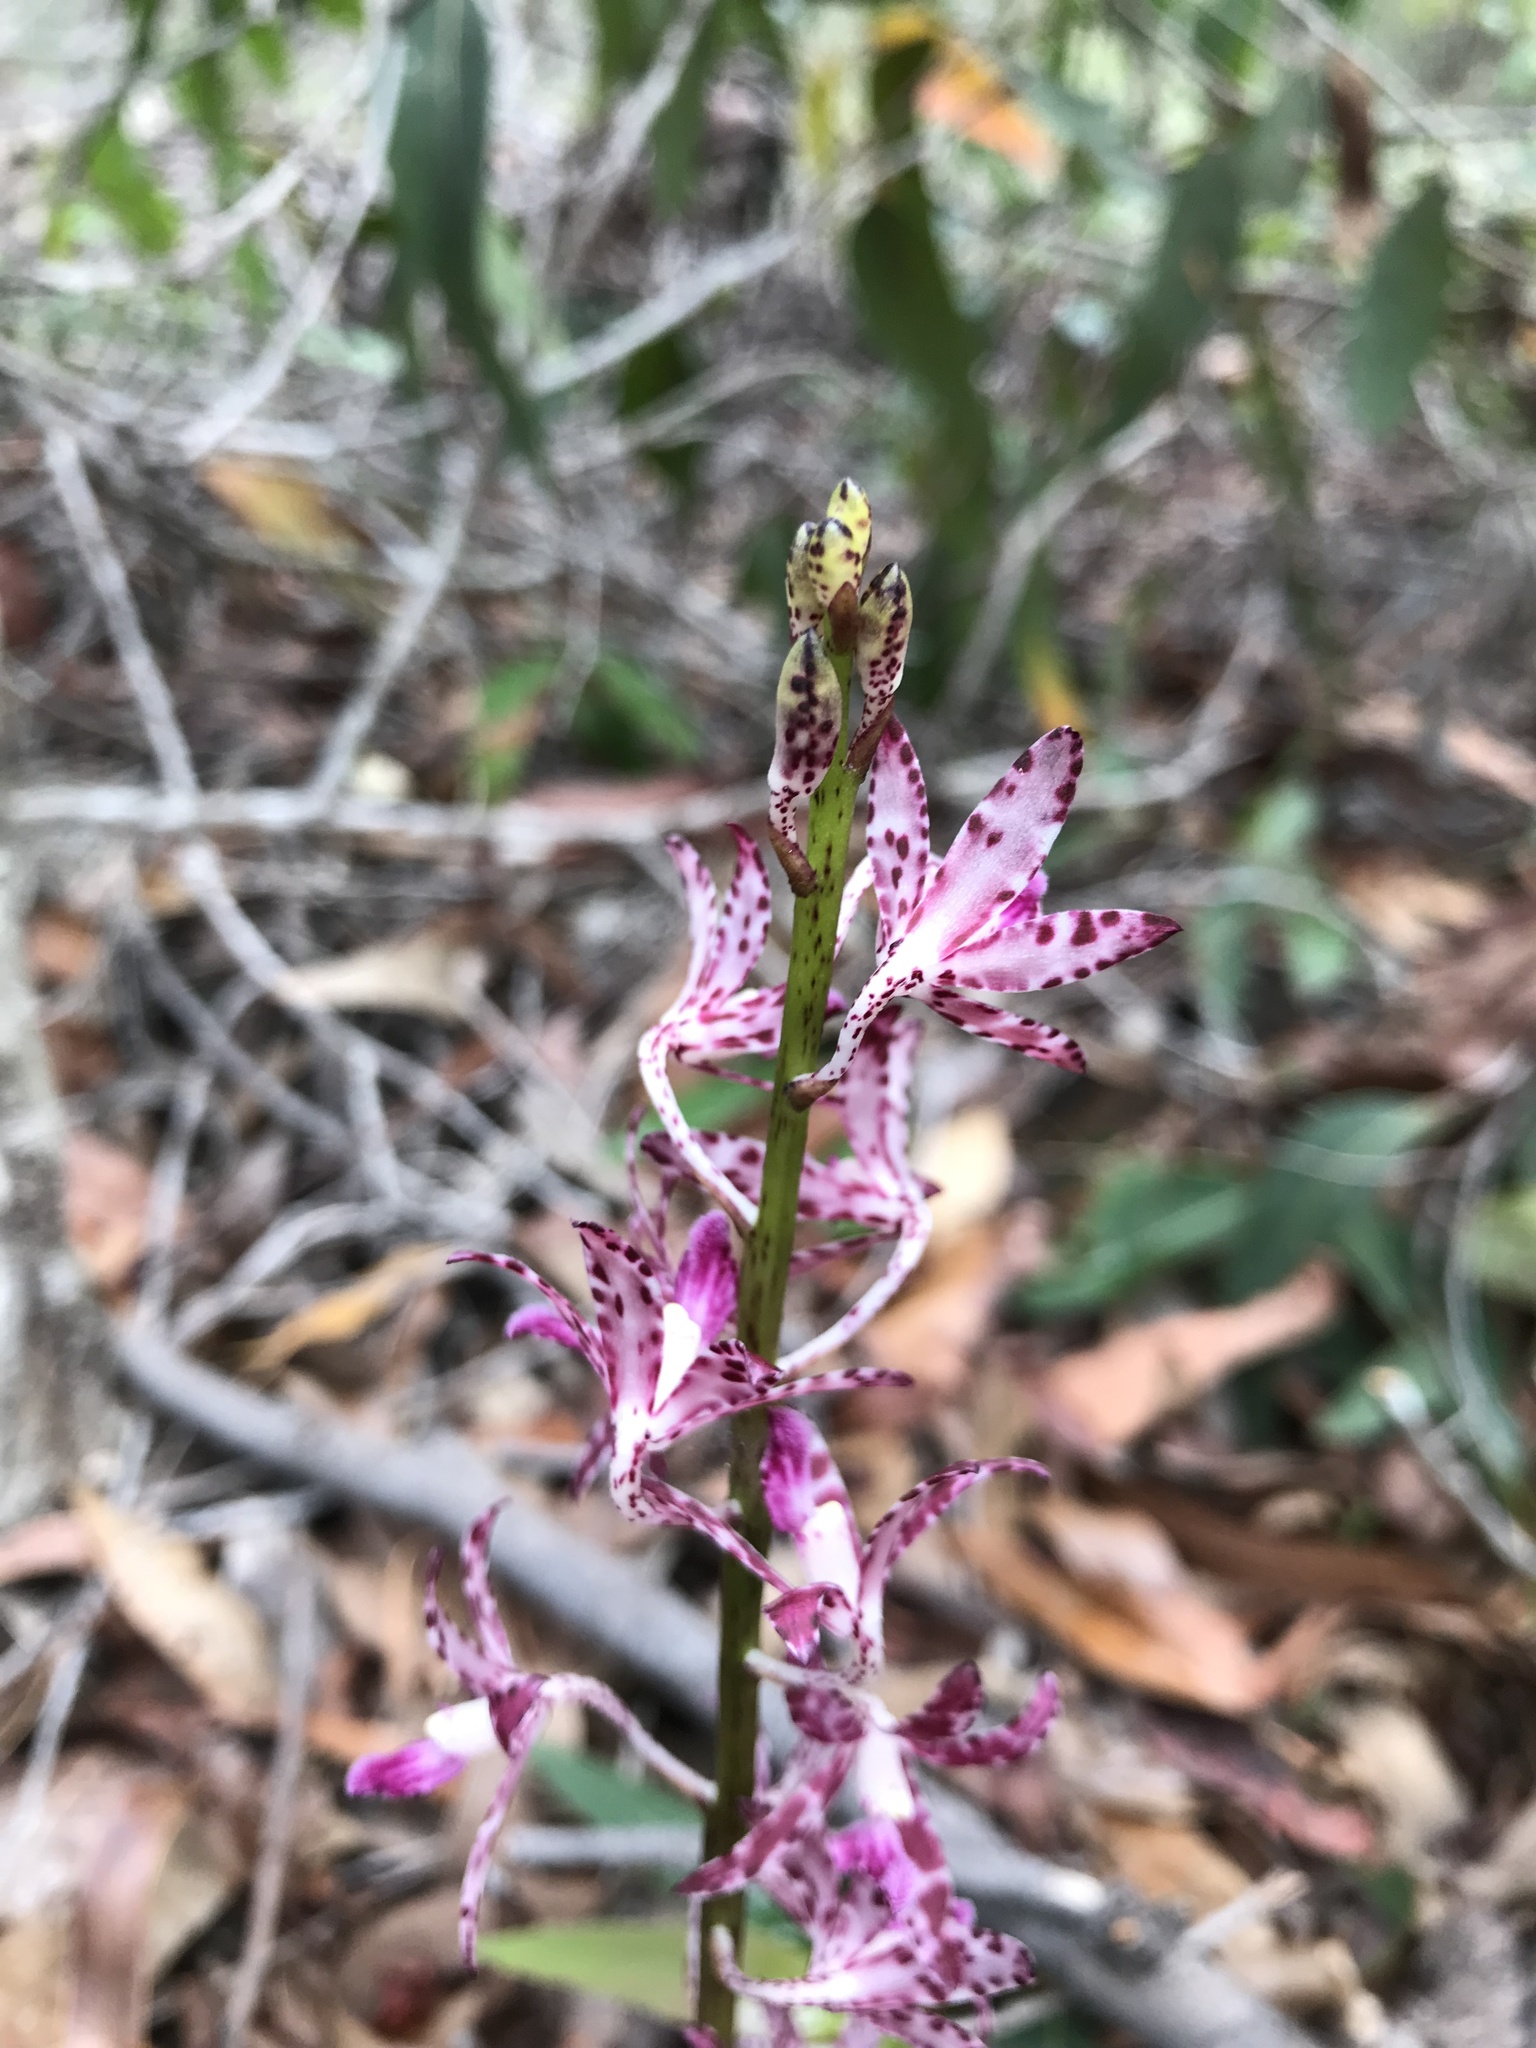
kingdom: Plantae
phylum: Tracheophyta
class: Liliopsida
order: Asparagales
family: Orchidaceae
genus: Dipodium
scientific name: Dipodium variegatum
